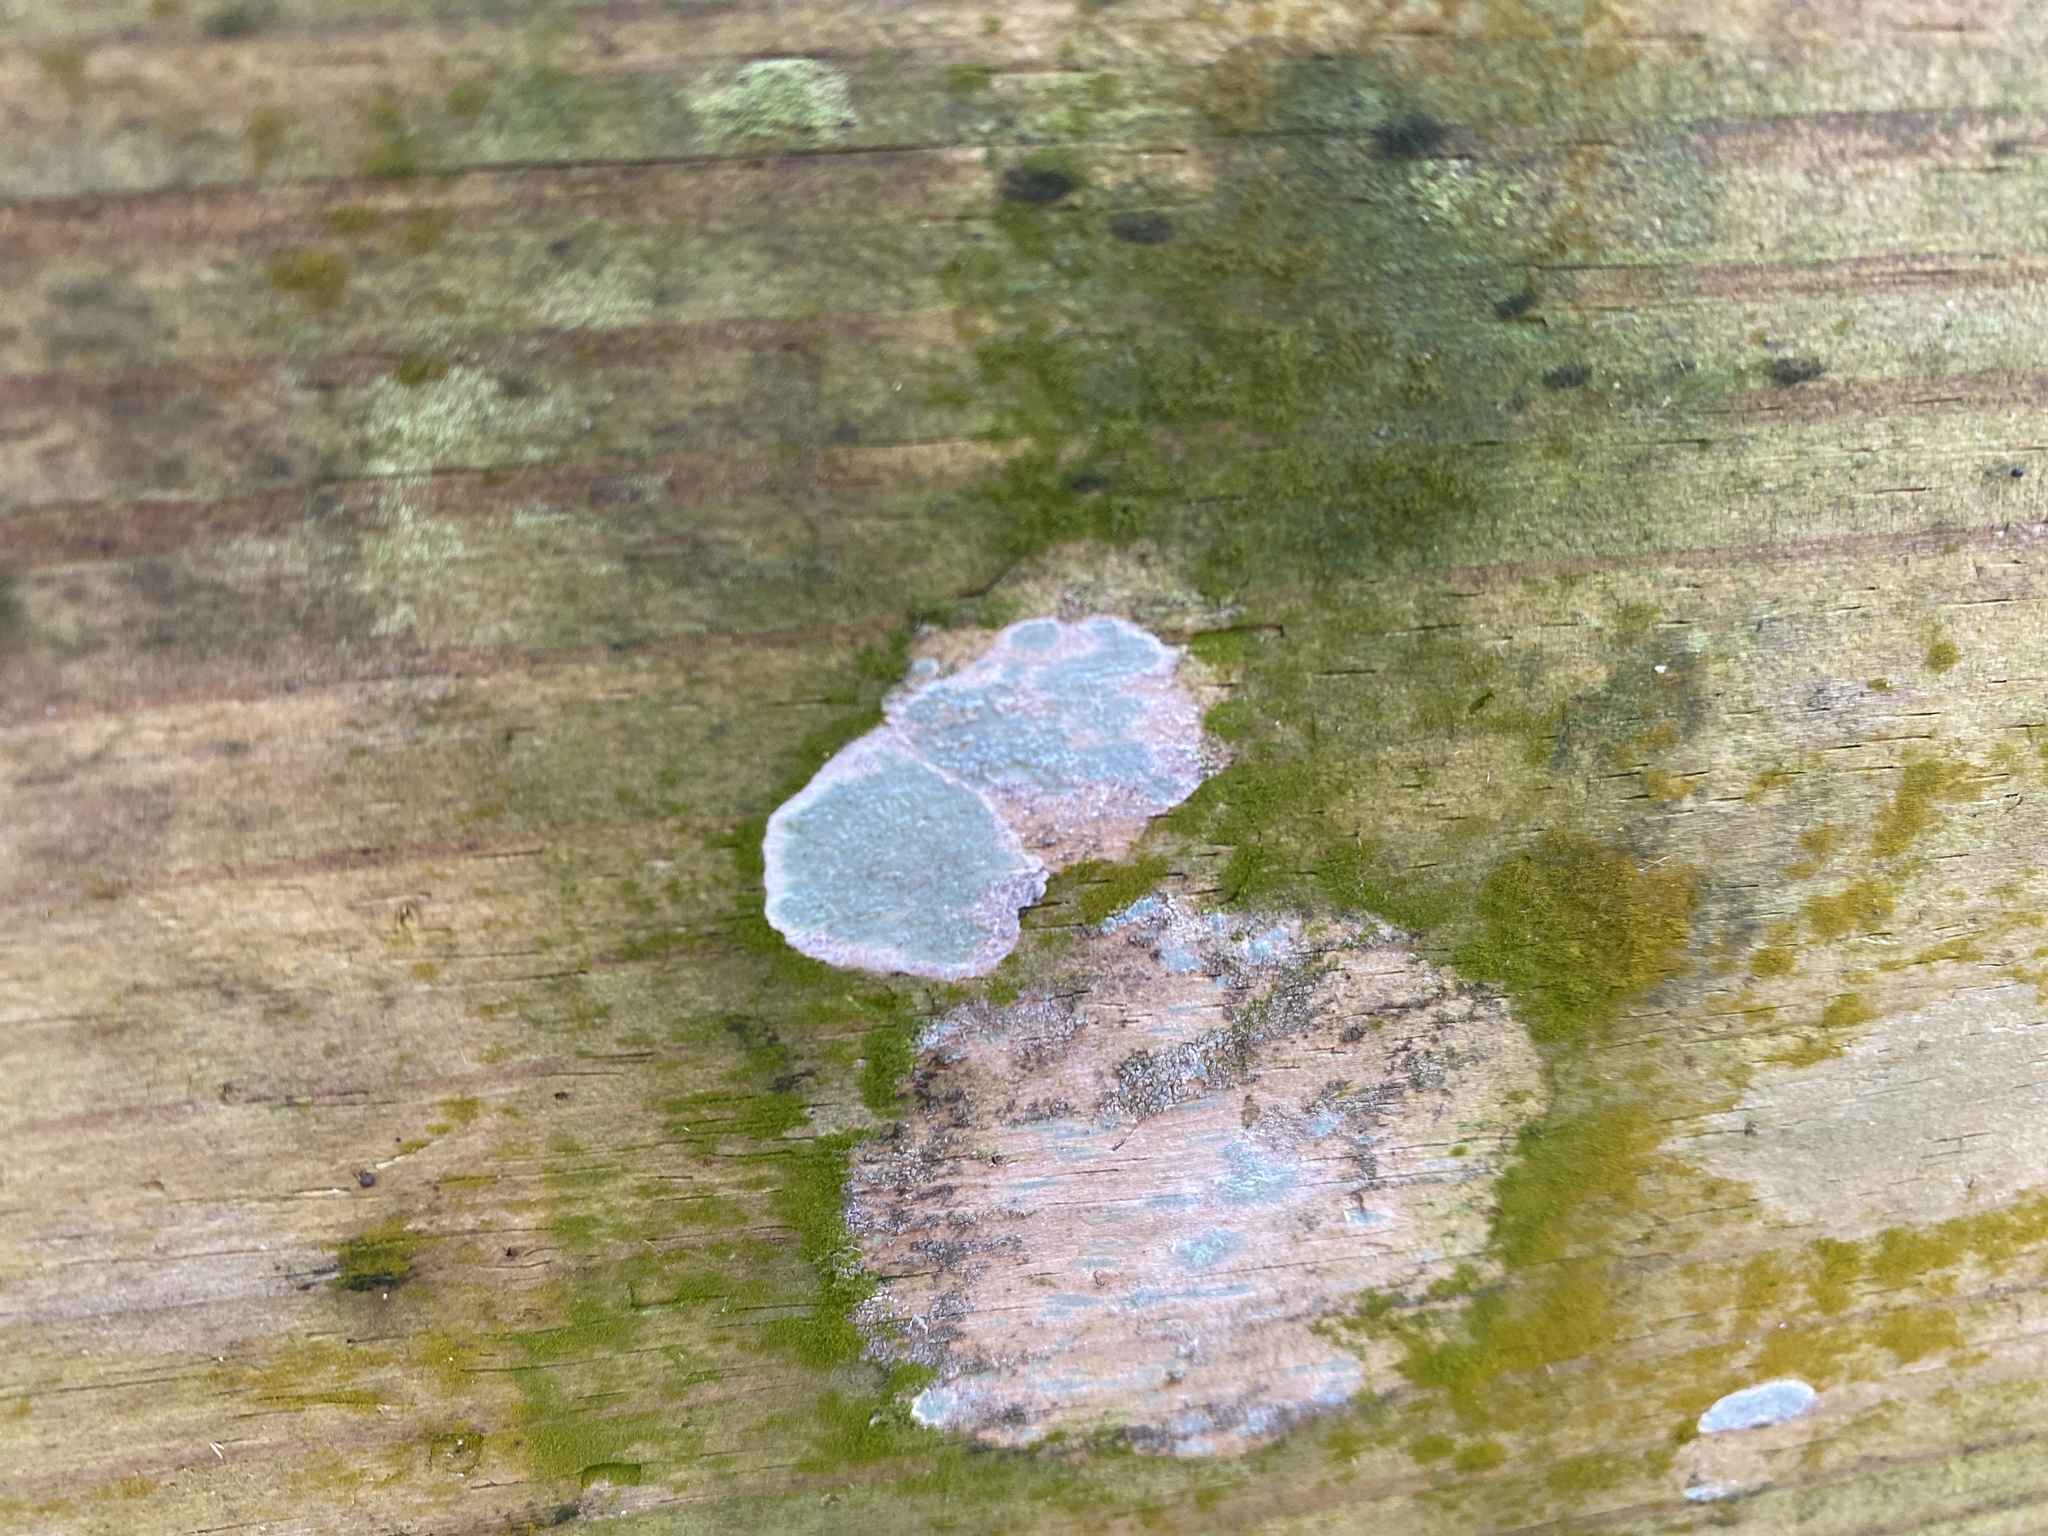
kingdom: Fungi
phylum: Ascomycota
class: Arthoniomycetes
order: Arthoniales
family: Arthoniaceae
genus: Cryptothecia
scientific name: Cryptothecia striata
